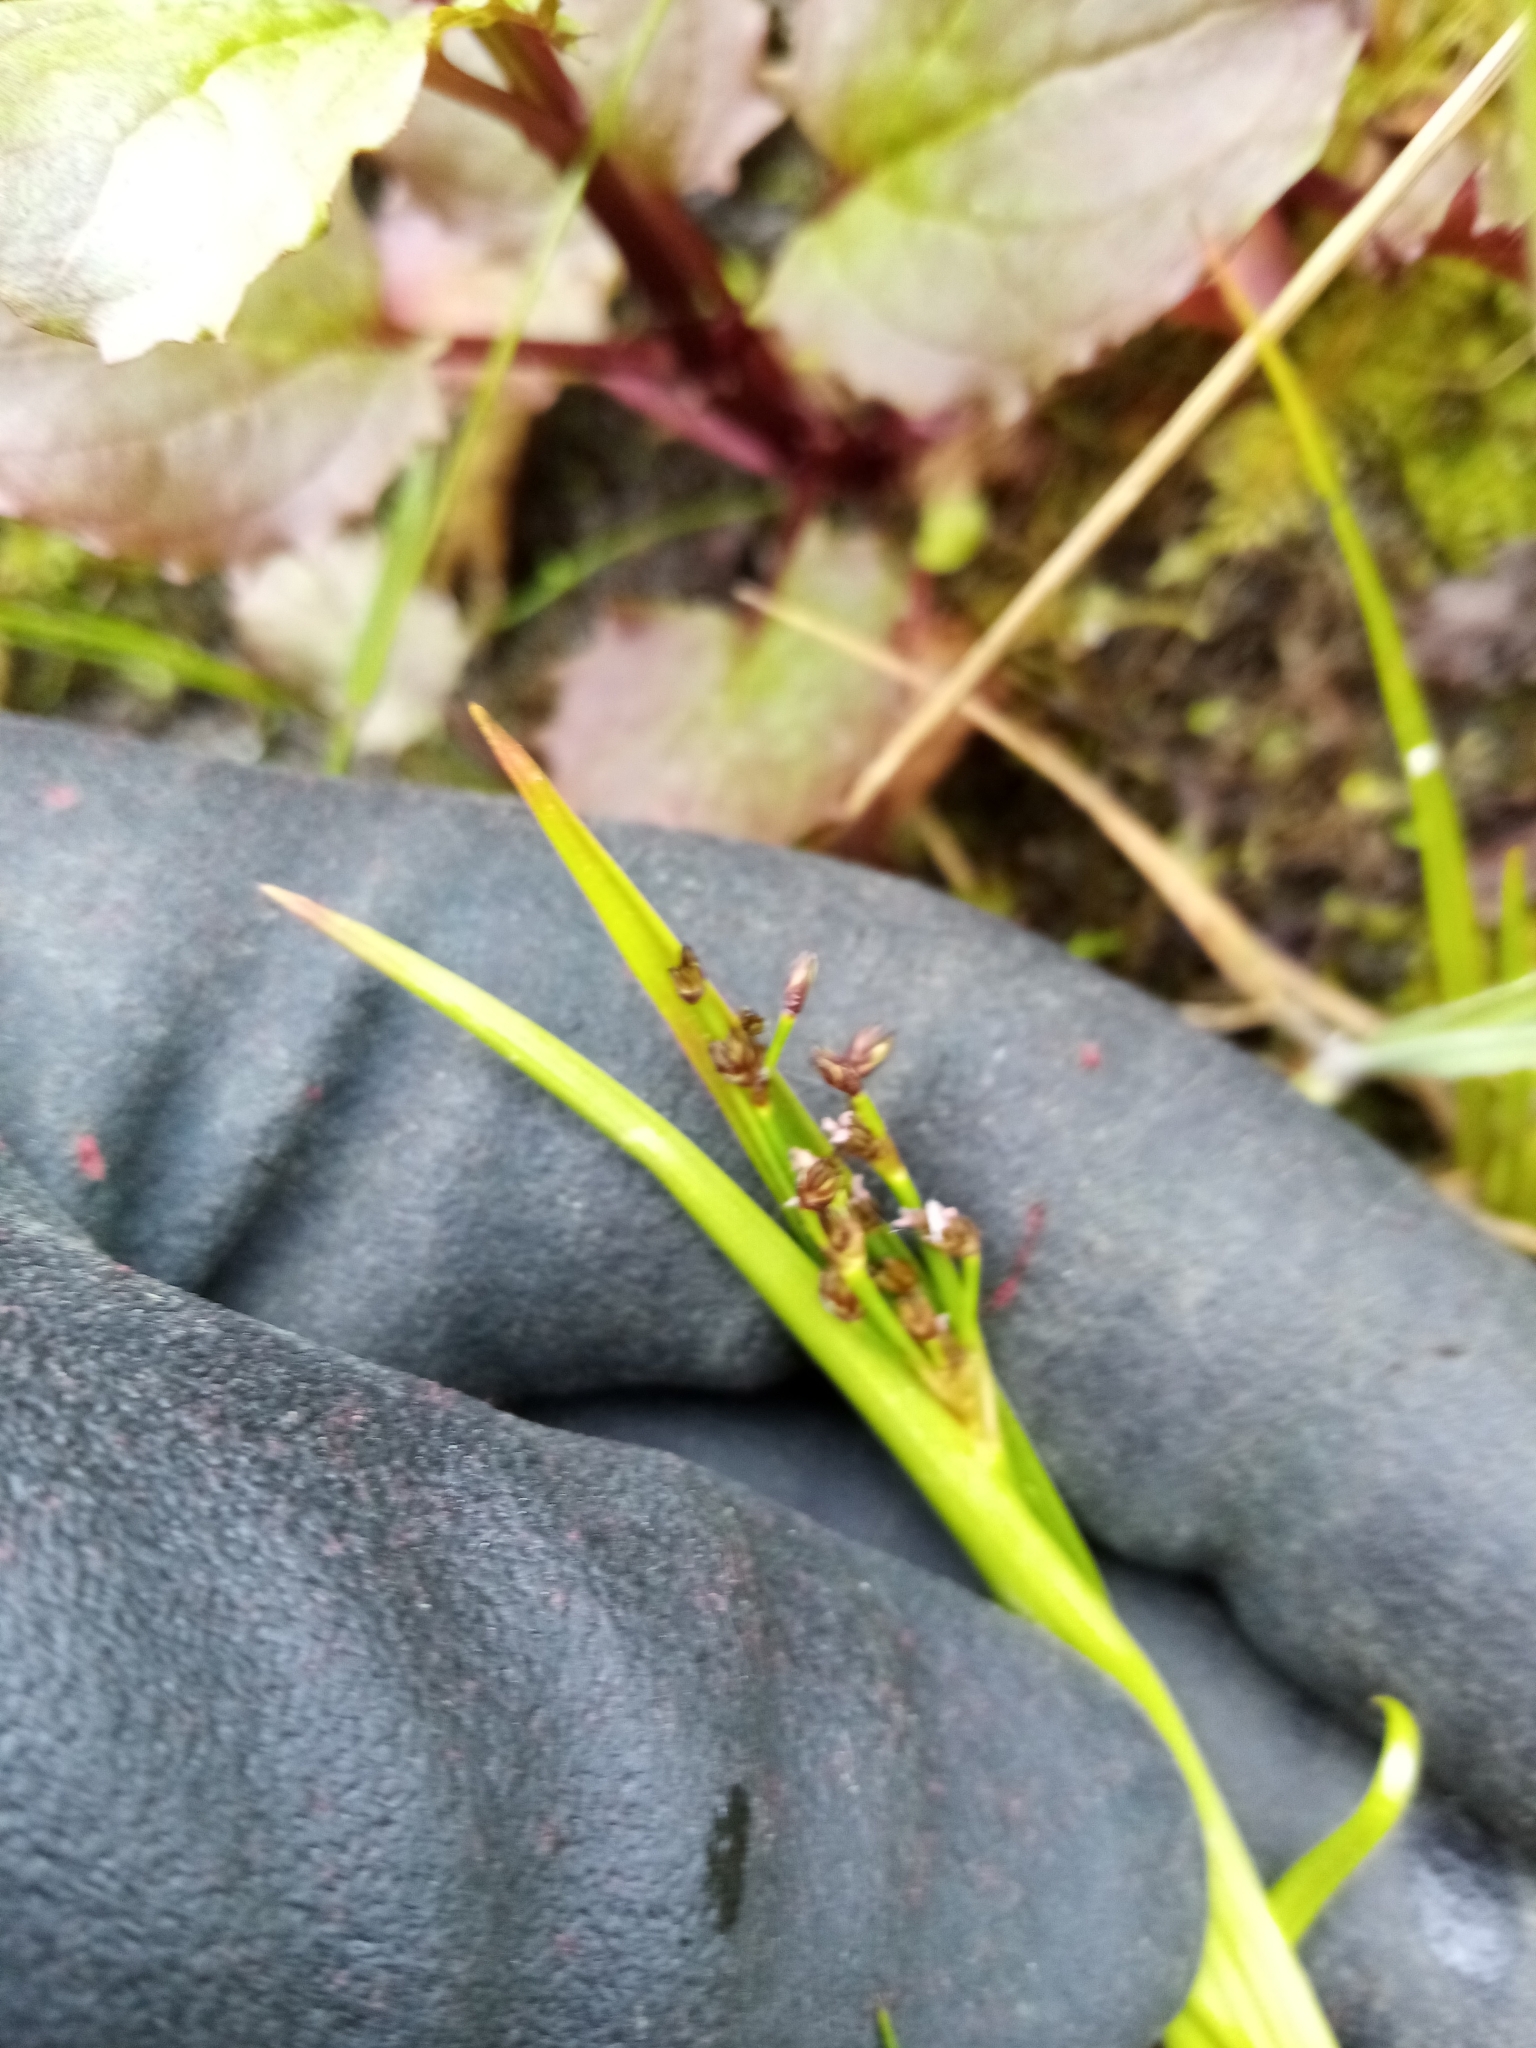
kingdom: Plantae
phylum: Tracheophyta
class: Liliopsida
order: Poales
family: Juncaceae
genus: Juncus
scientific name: Juncus planifolius
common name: Broadleaf rush
